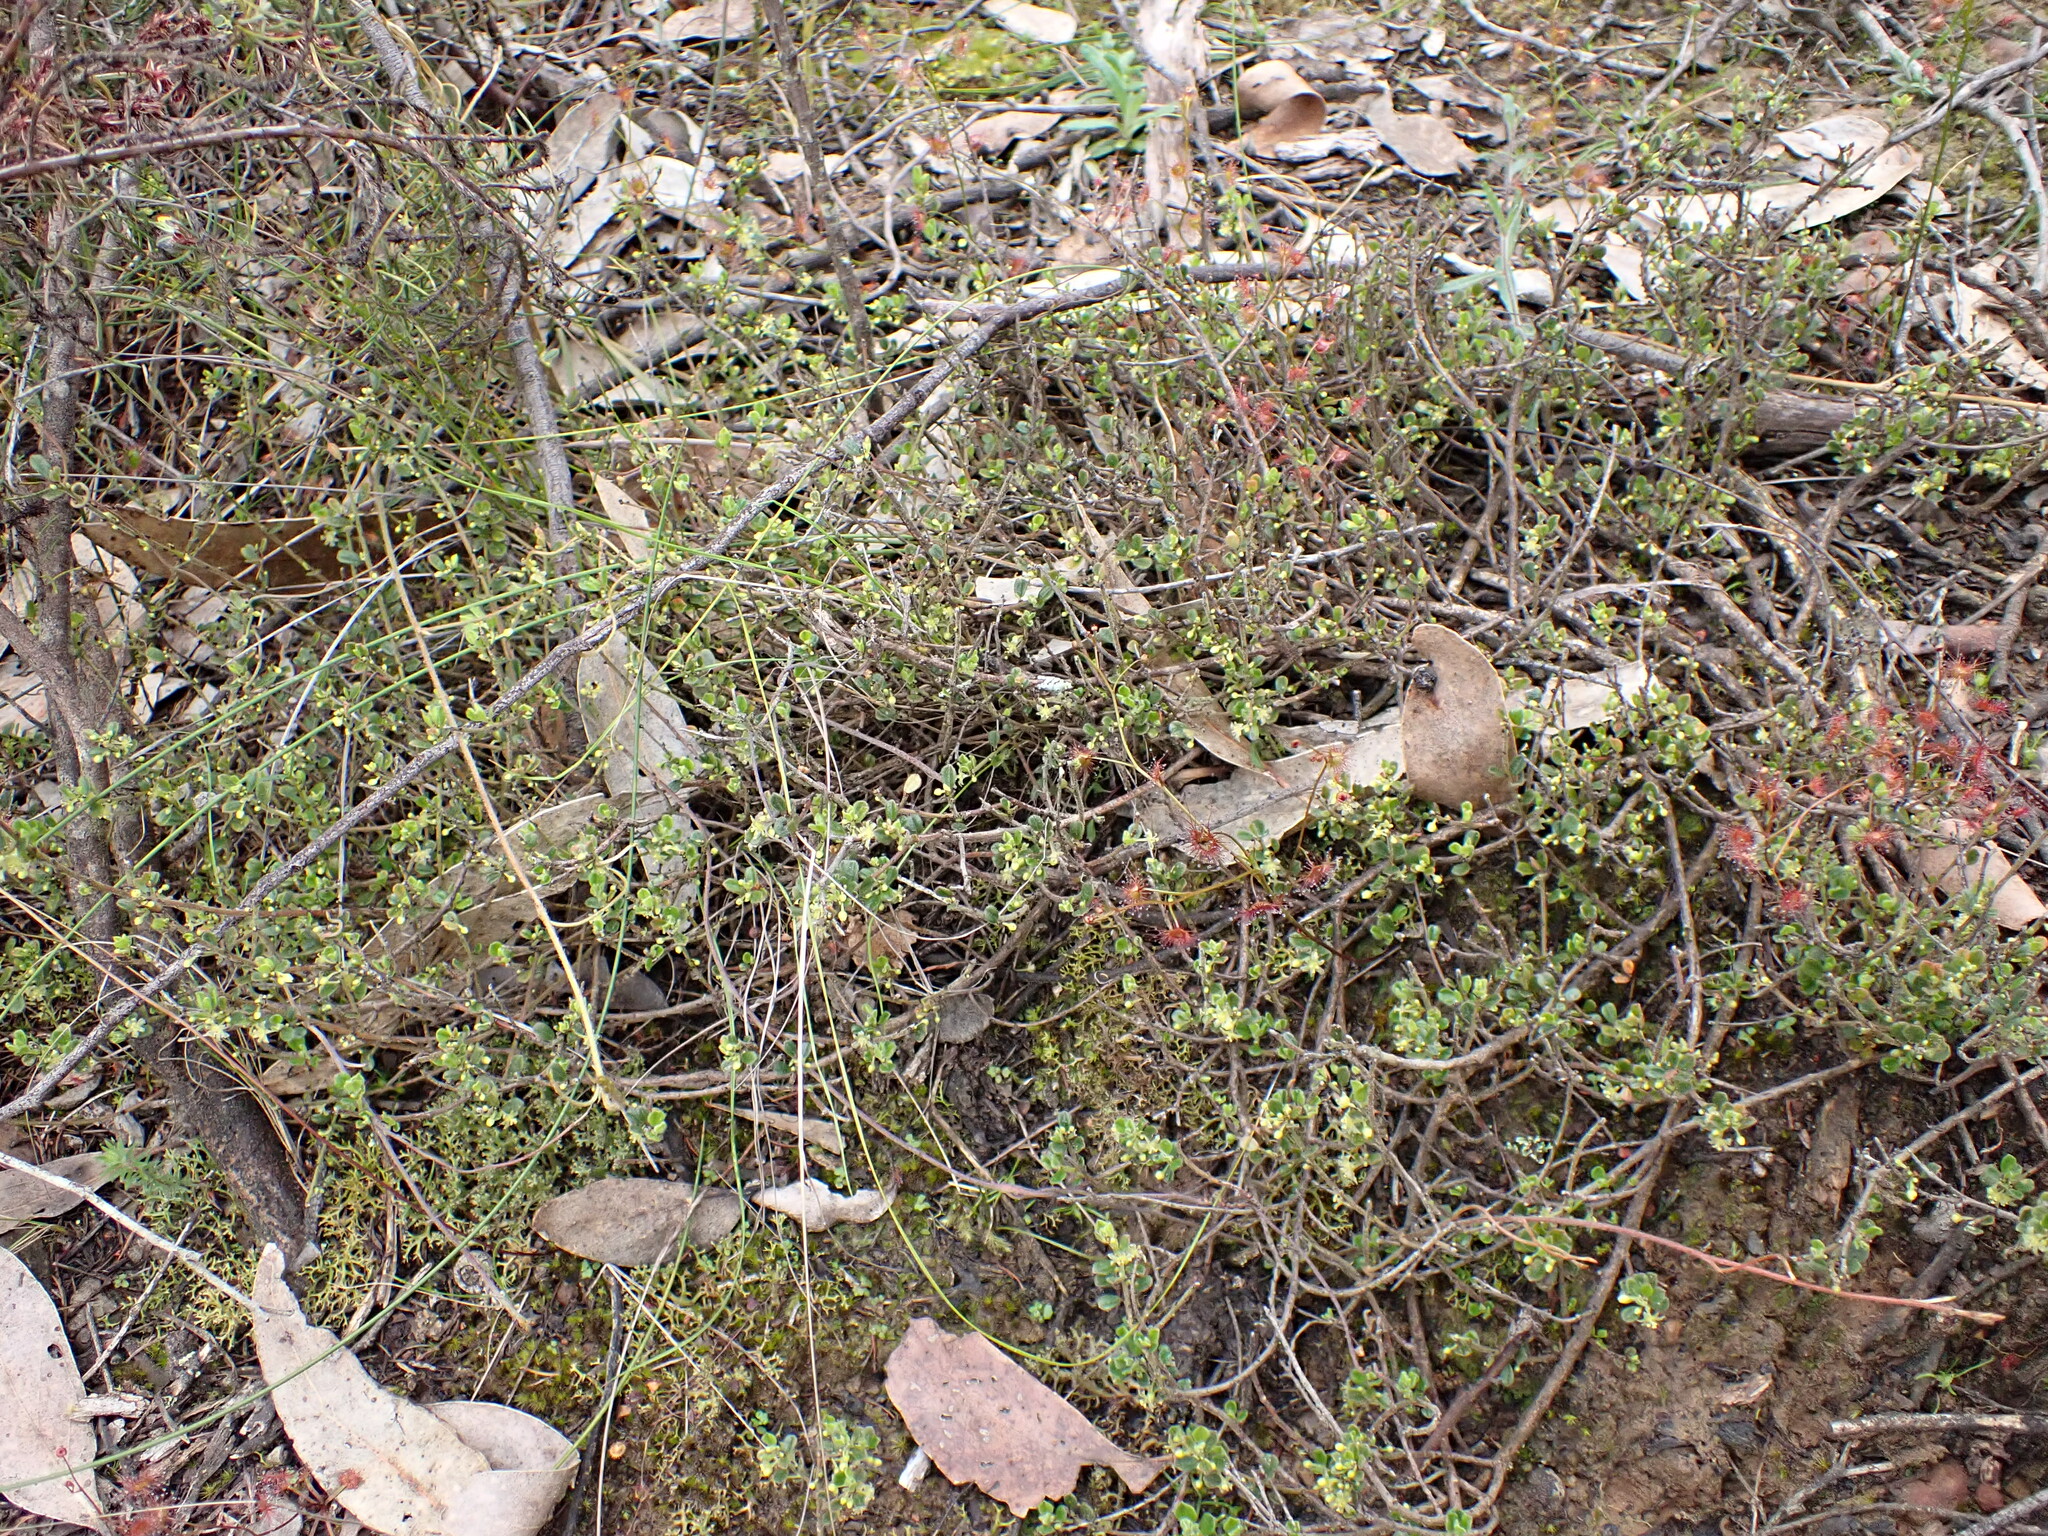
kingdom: Plantae
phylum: Tracheophyta
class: Magnoliopsida
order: Malpighiales
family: Phyllanthaceae
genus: Phyllanthus
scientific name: Phyllanthus hirtellus
